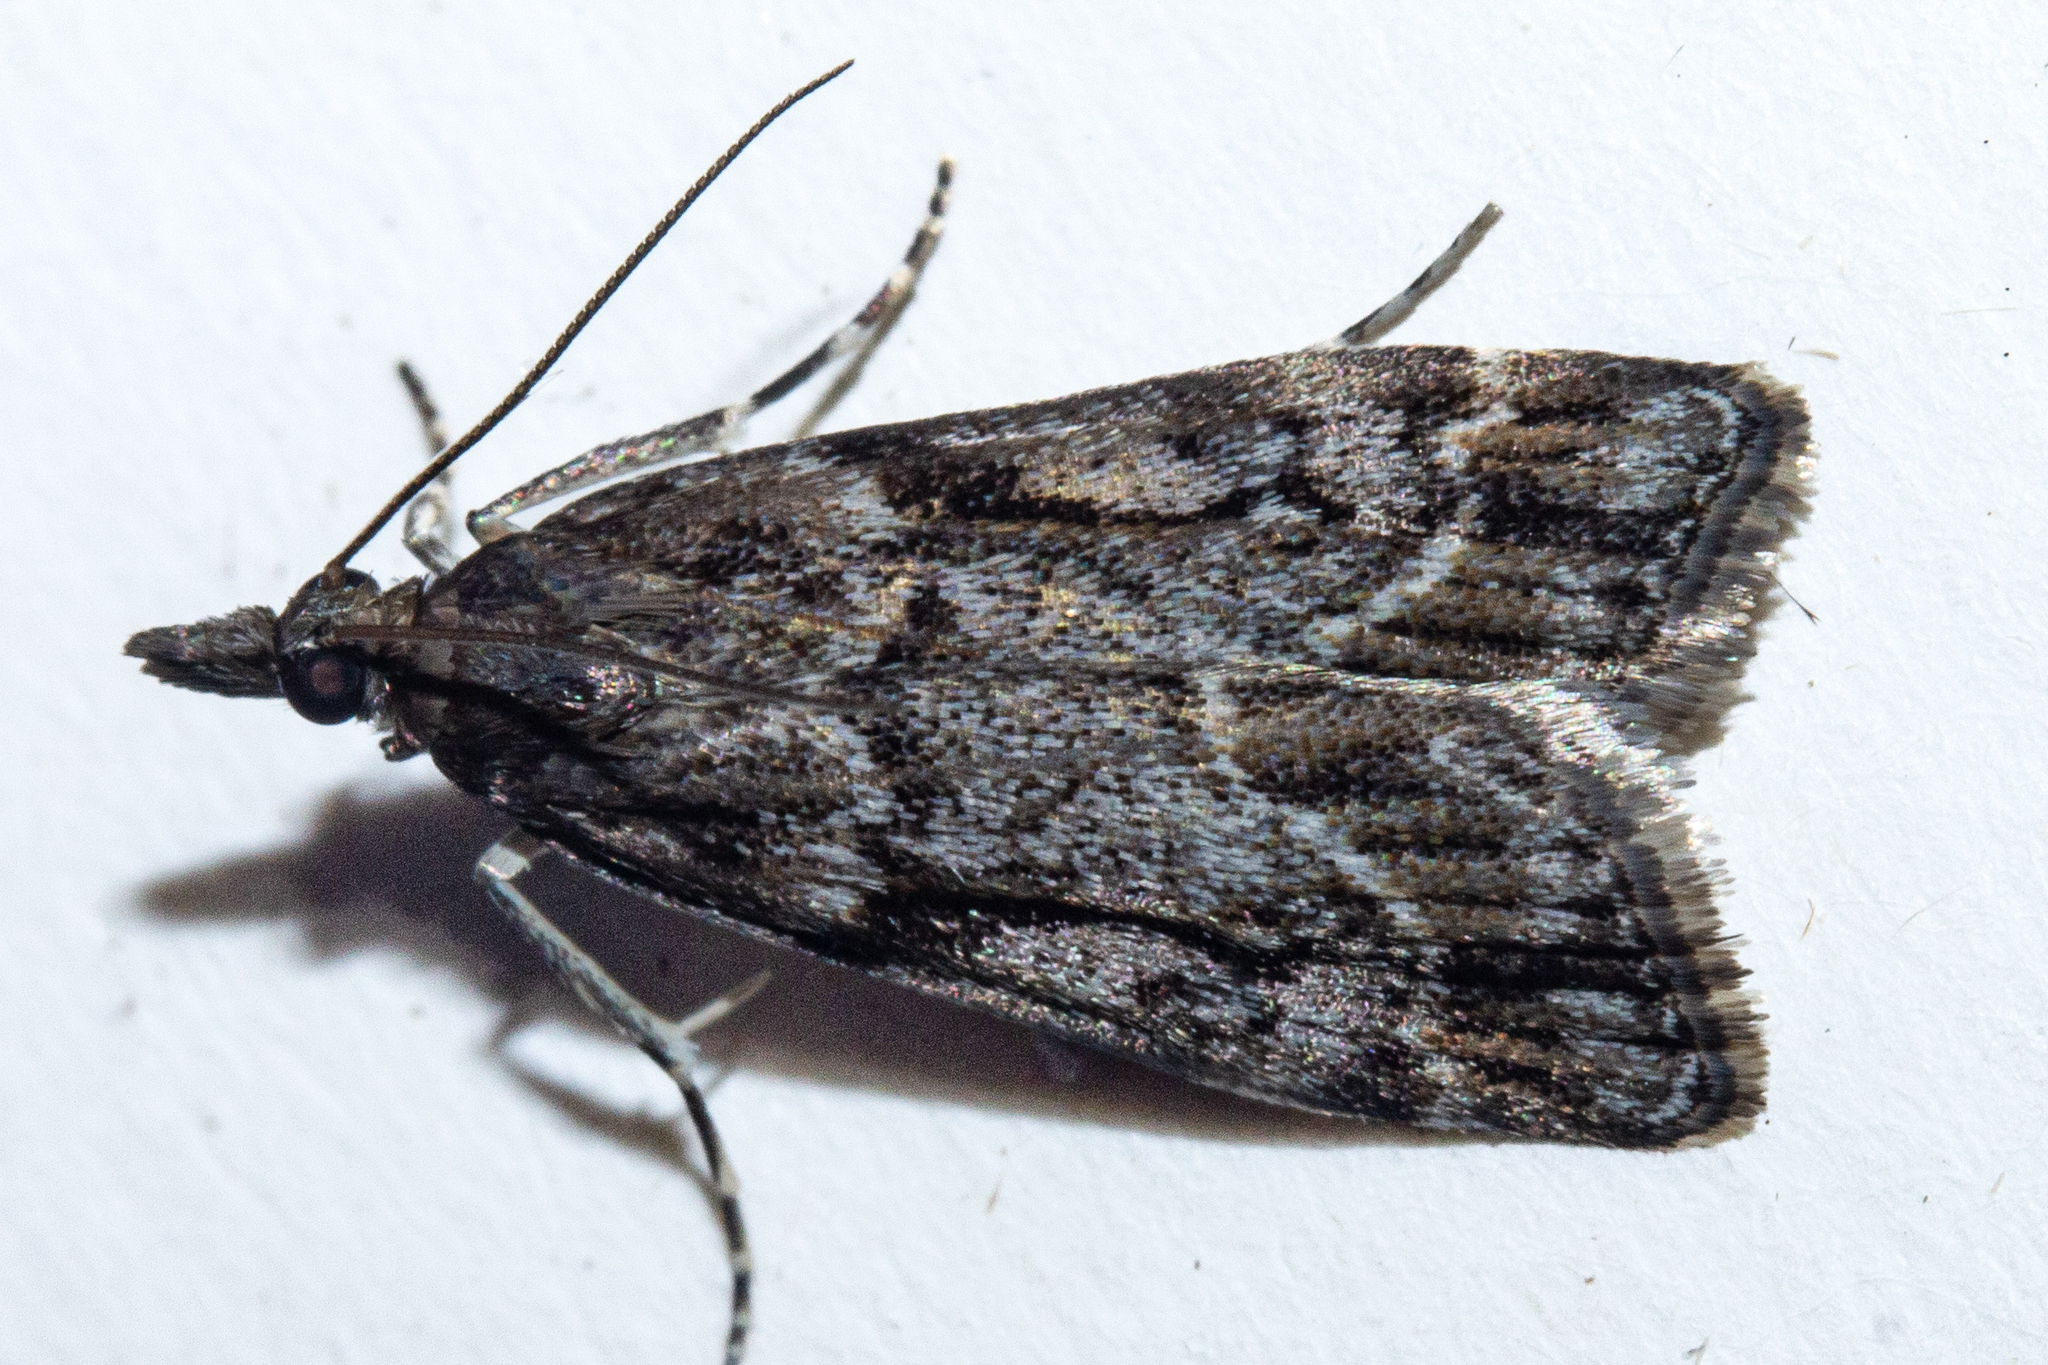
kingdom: Animalia
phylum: Arthropoda
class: Insecta
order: Lepidoptera
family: Crambidae
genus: Eudonia
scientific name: Eudonia legnota
